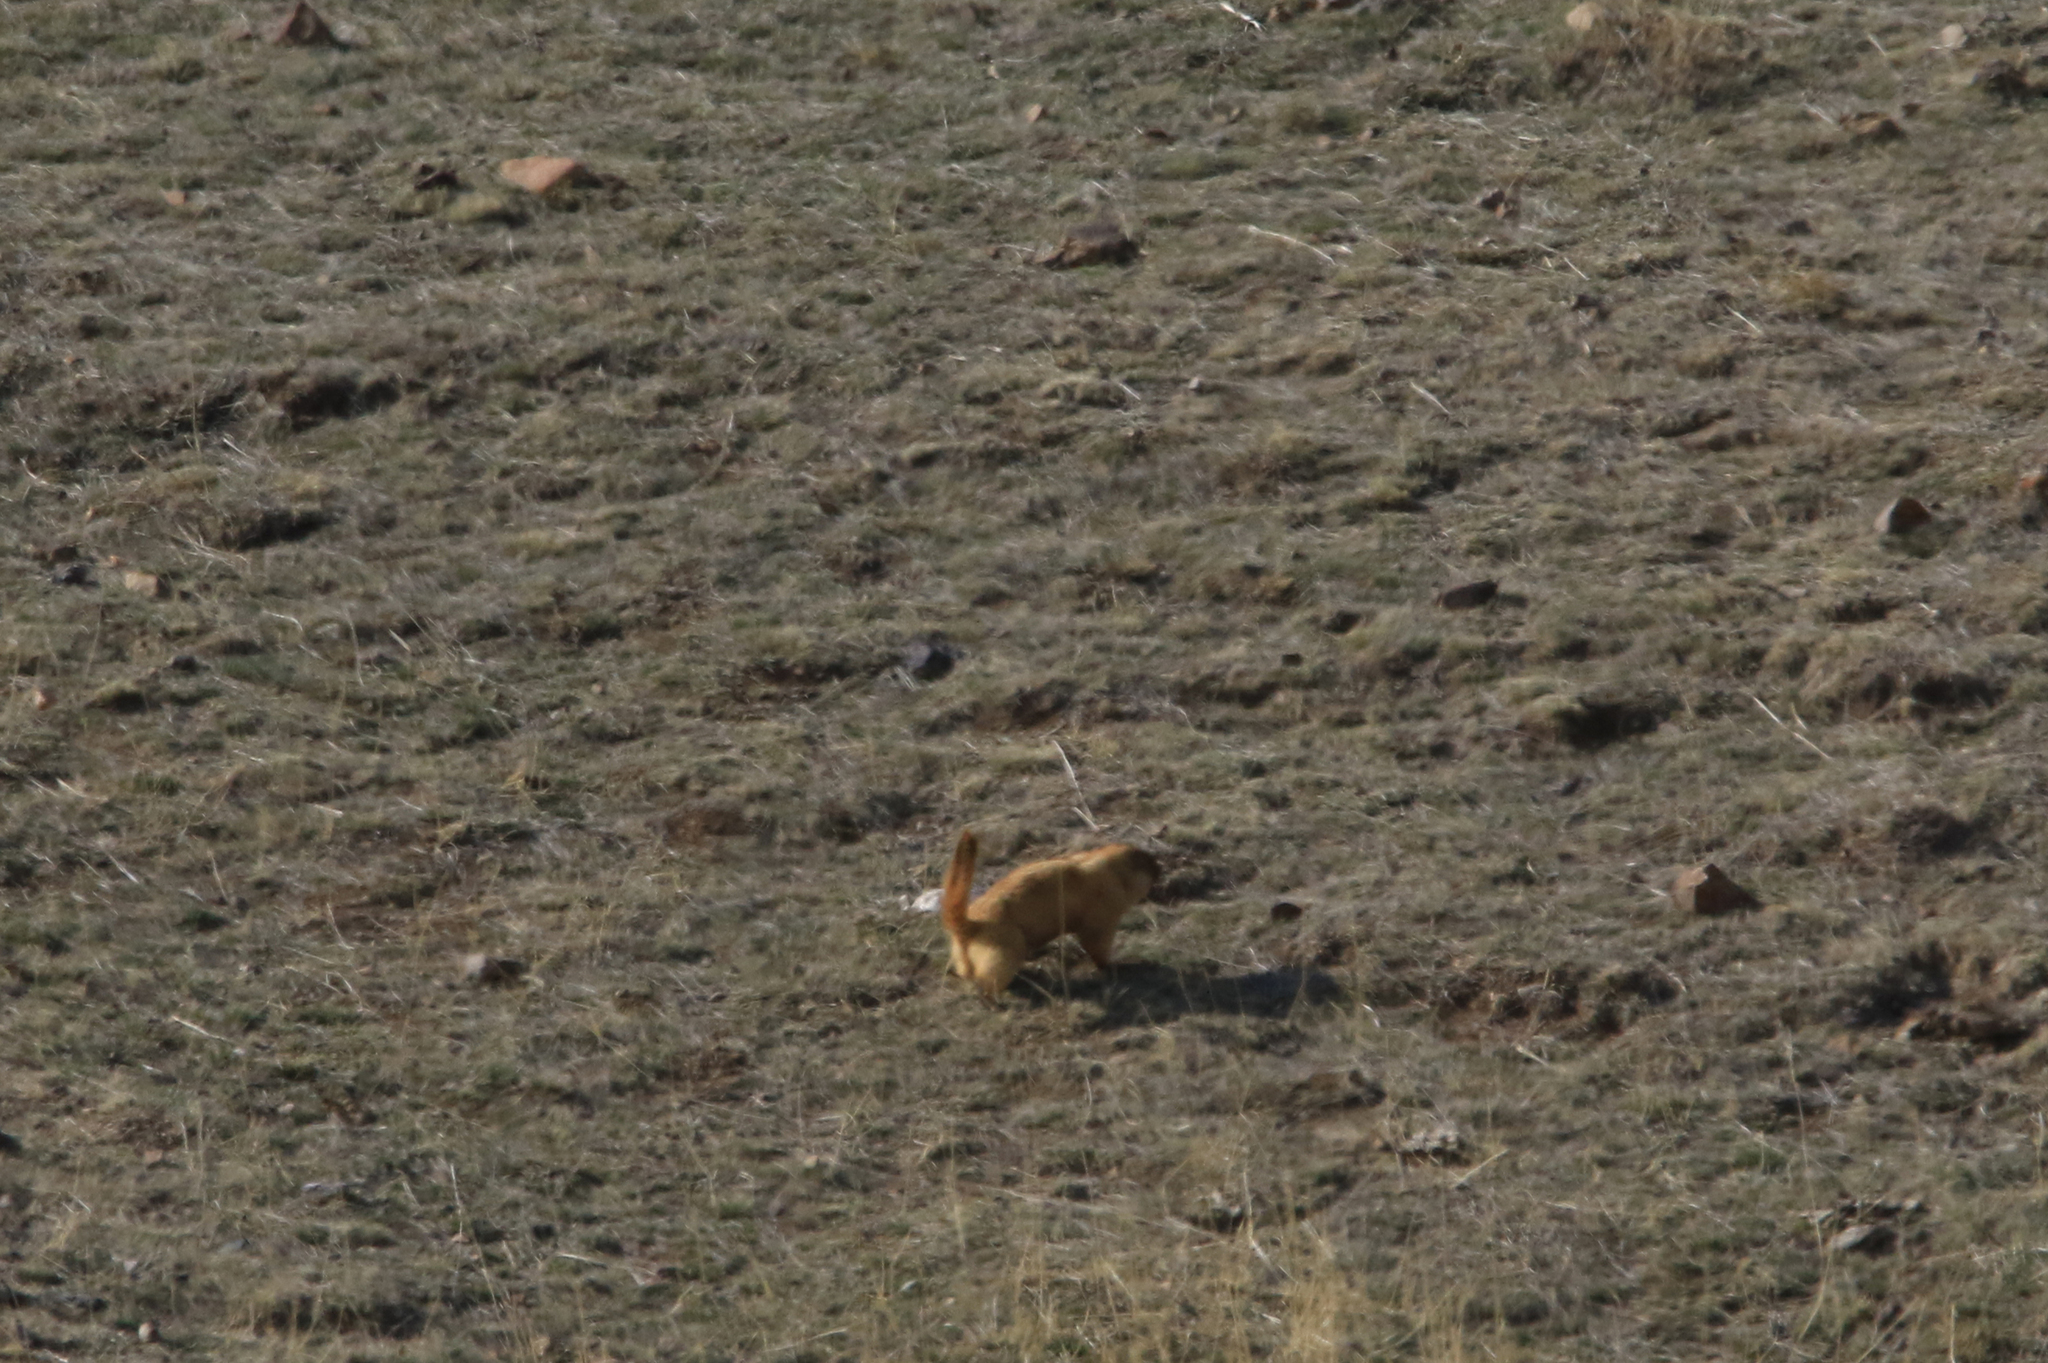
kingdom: Animalia
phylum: Chordata
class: Mammalia
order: Rodentia
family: Sciuridae
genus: Marmota
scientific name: Marmota baibacina
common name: Gray marmot
